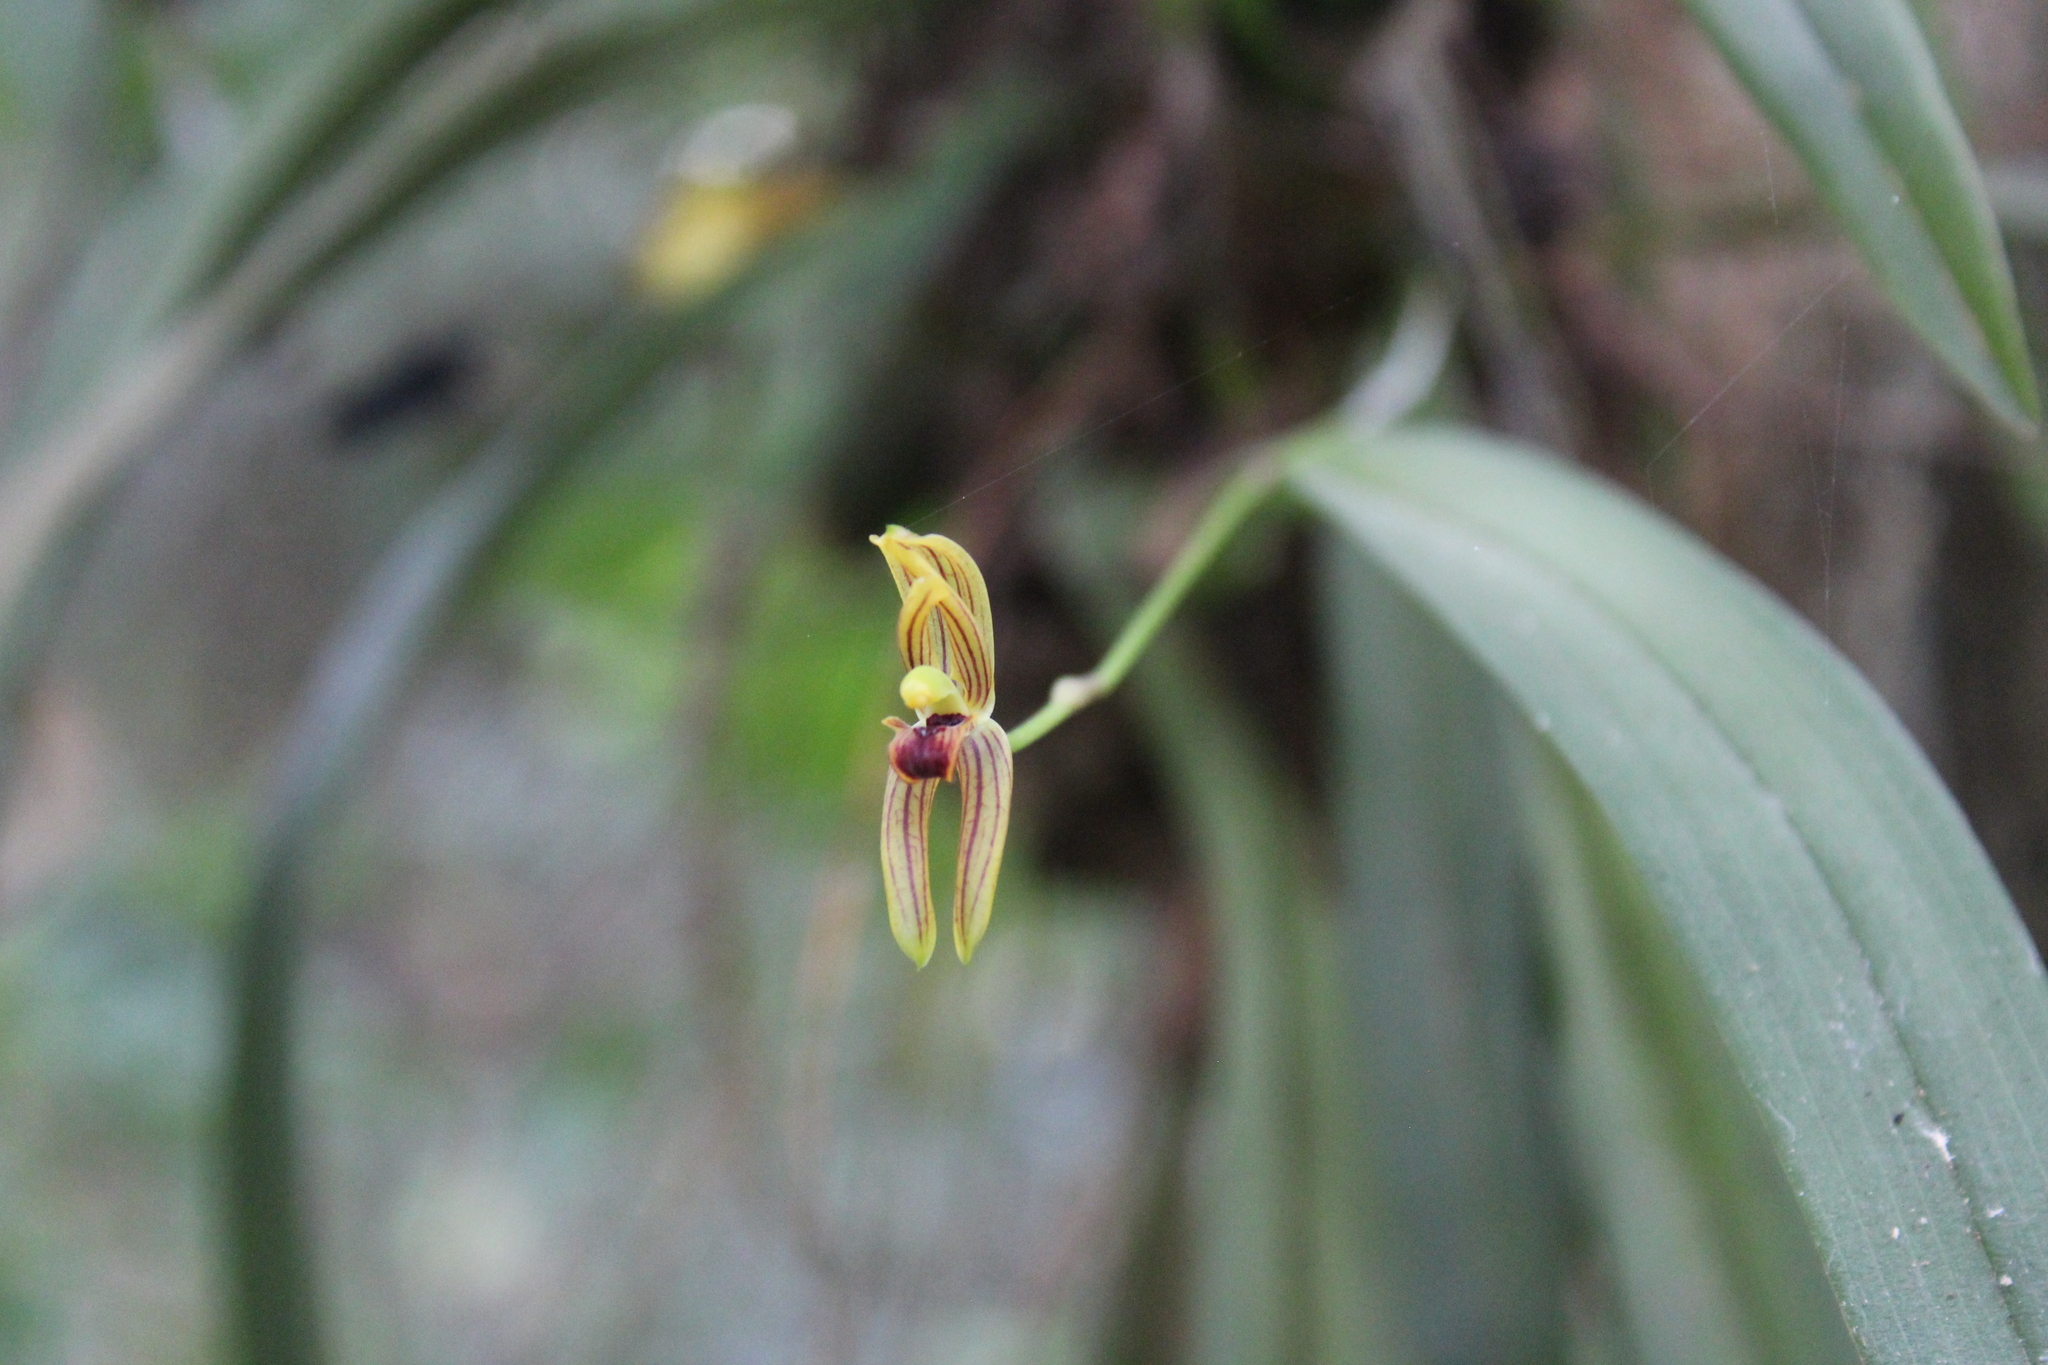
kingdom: Plantae
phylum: Tracheophyta
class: Liliopsida
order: Asparagales
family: Orchidaceae
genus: Maxillaria
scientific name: Maxillaria lineolata
